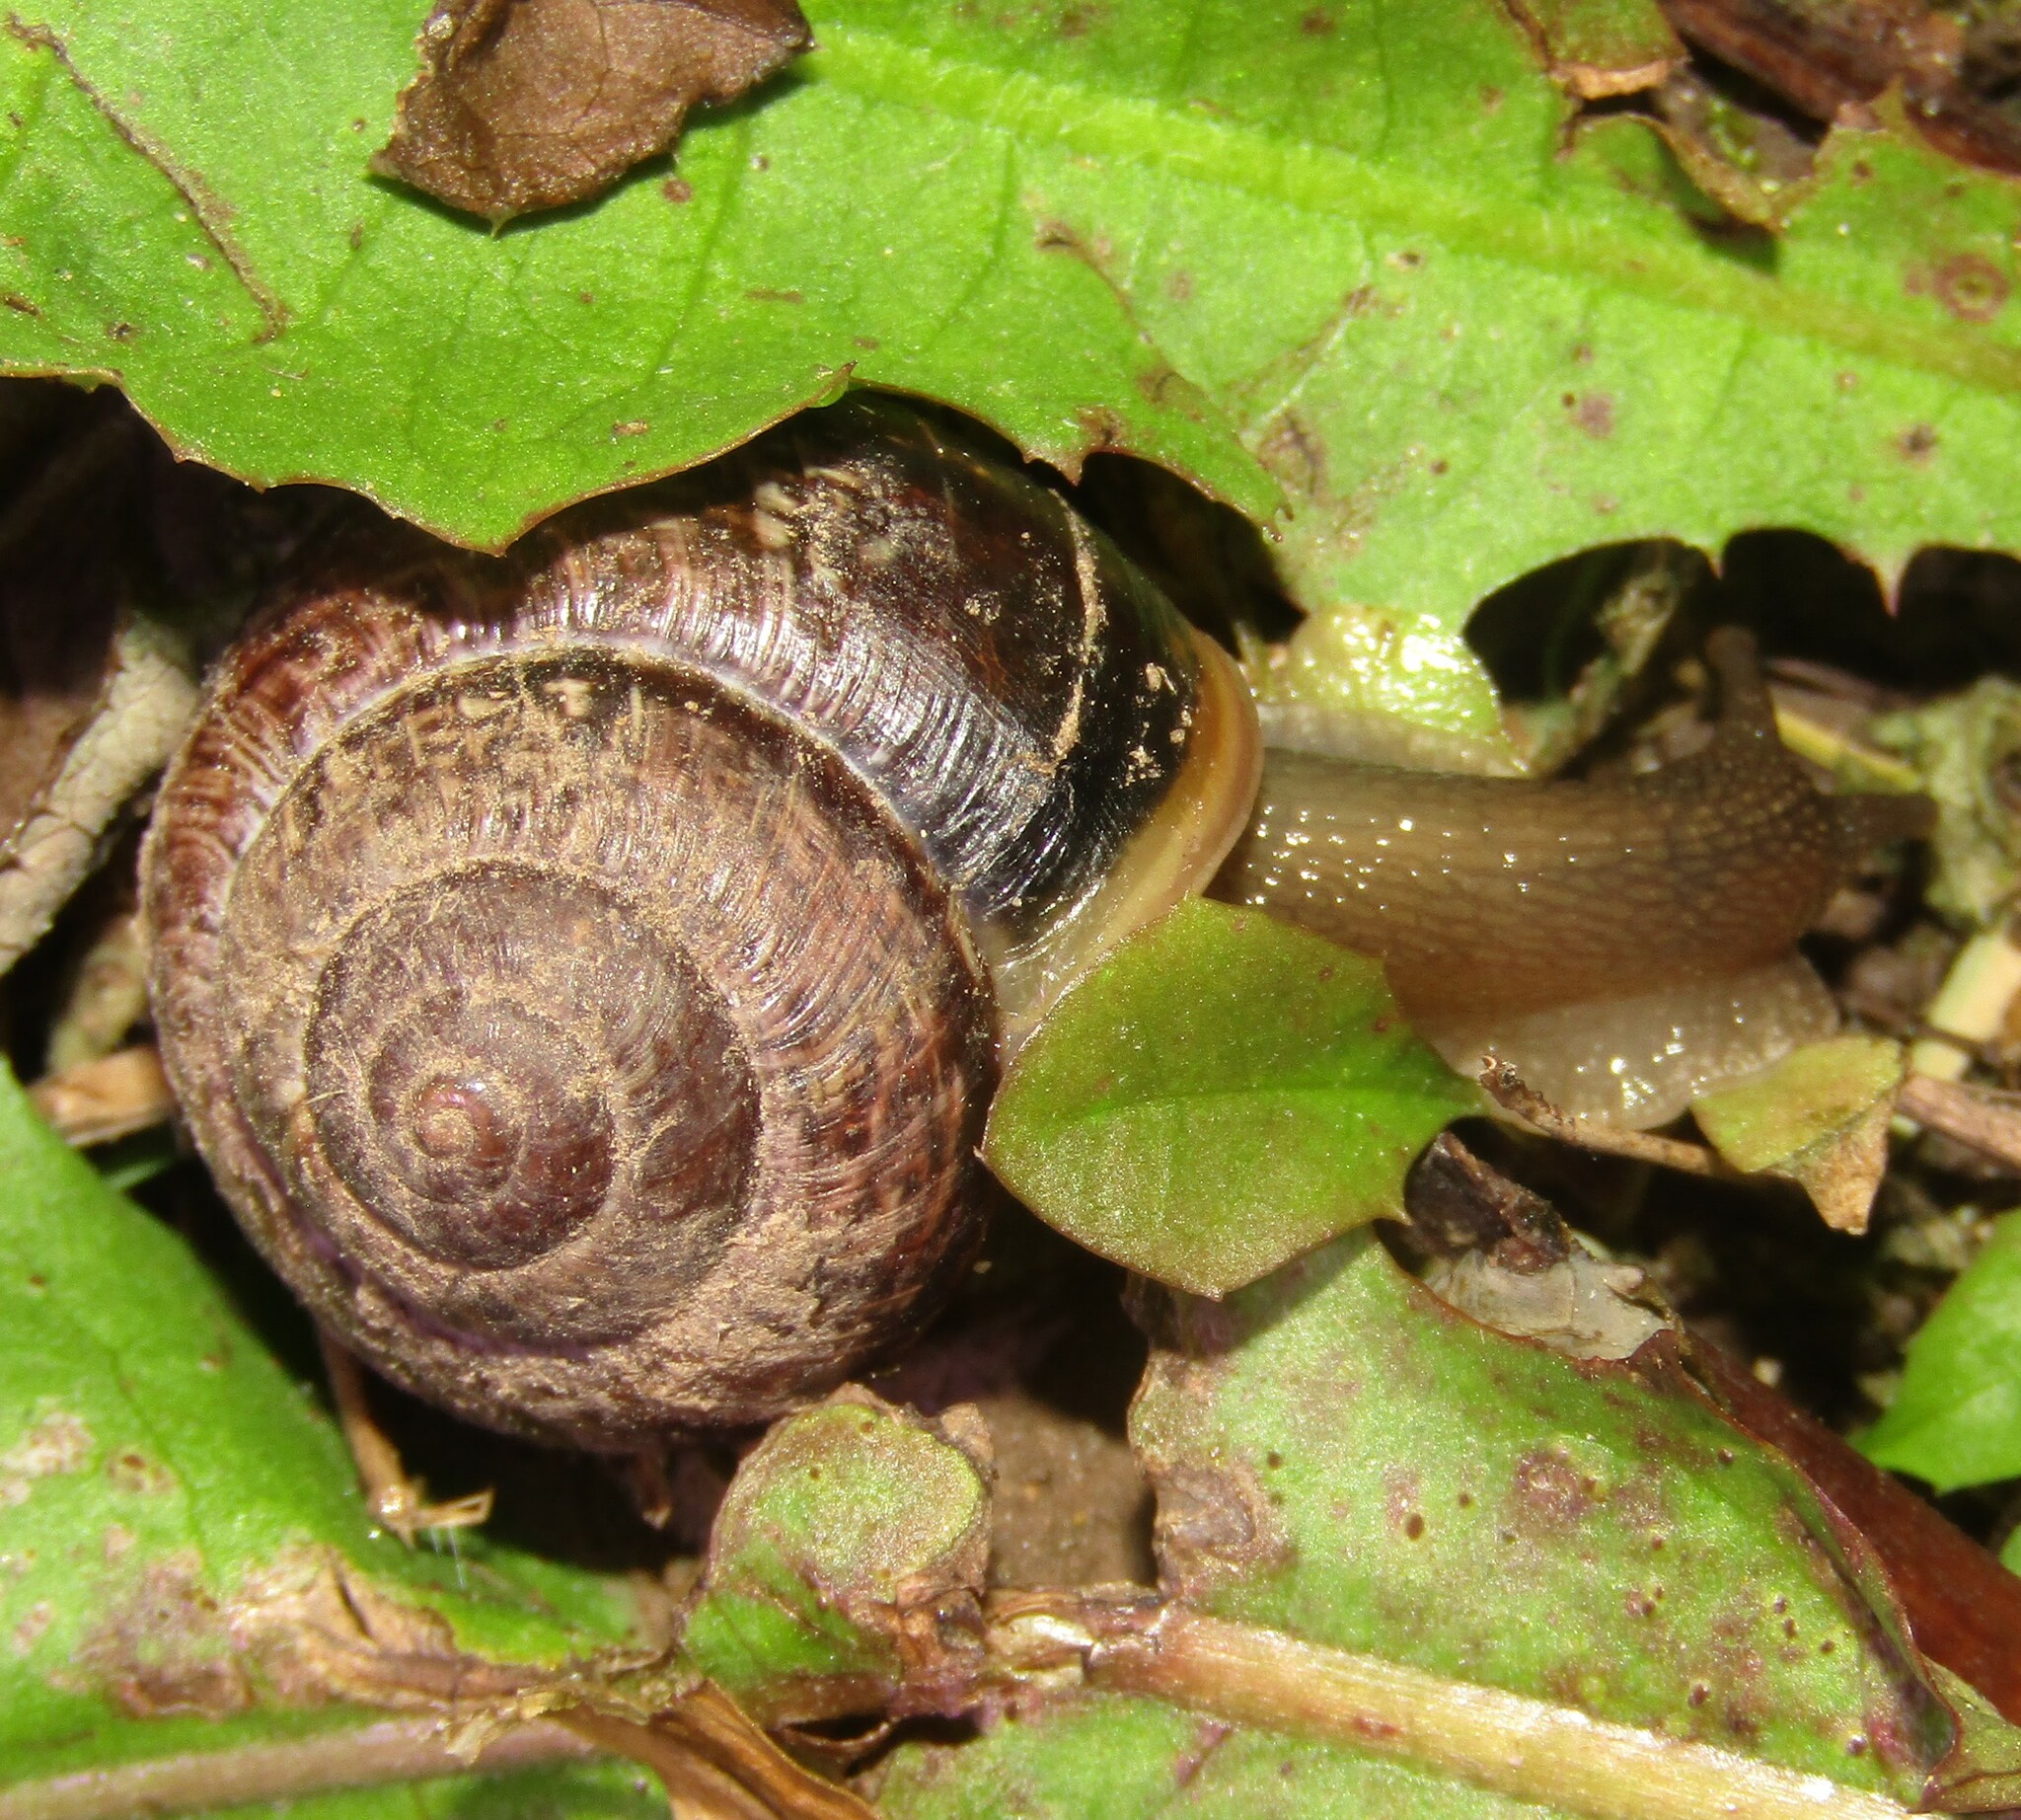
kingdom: Animalia
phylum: Mollusca
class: Gastropoda
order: Stylommatophora
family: Helicidae
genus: Arianta
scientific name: Arianta arbustorum
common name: Copse snail
